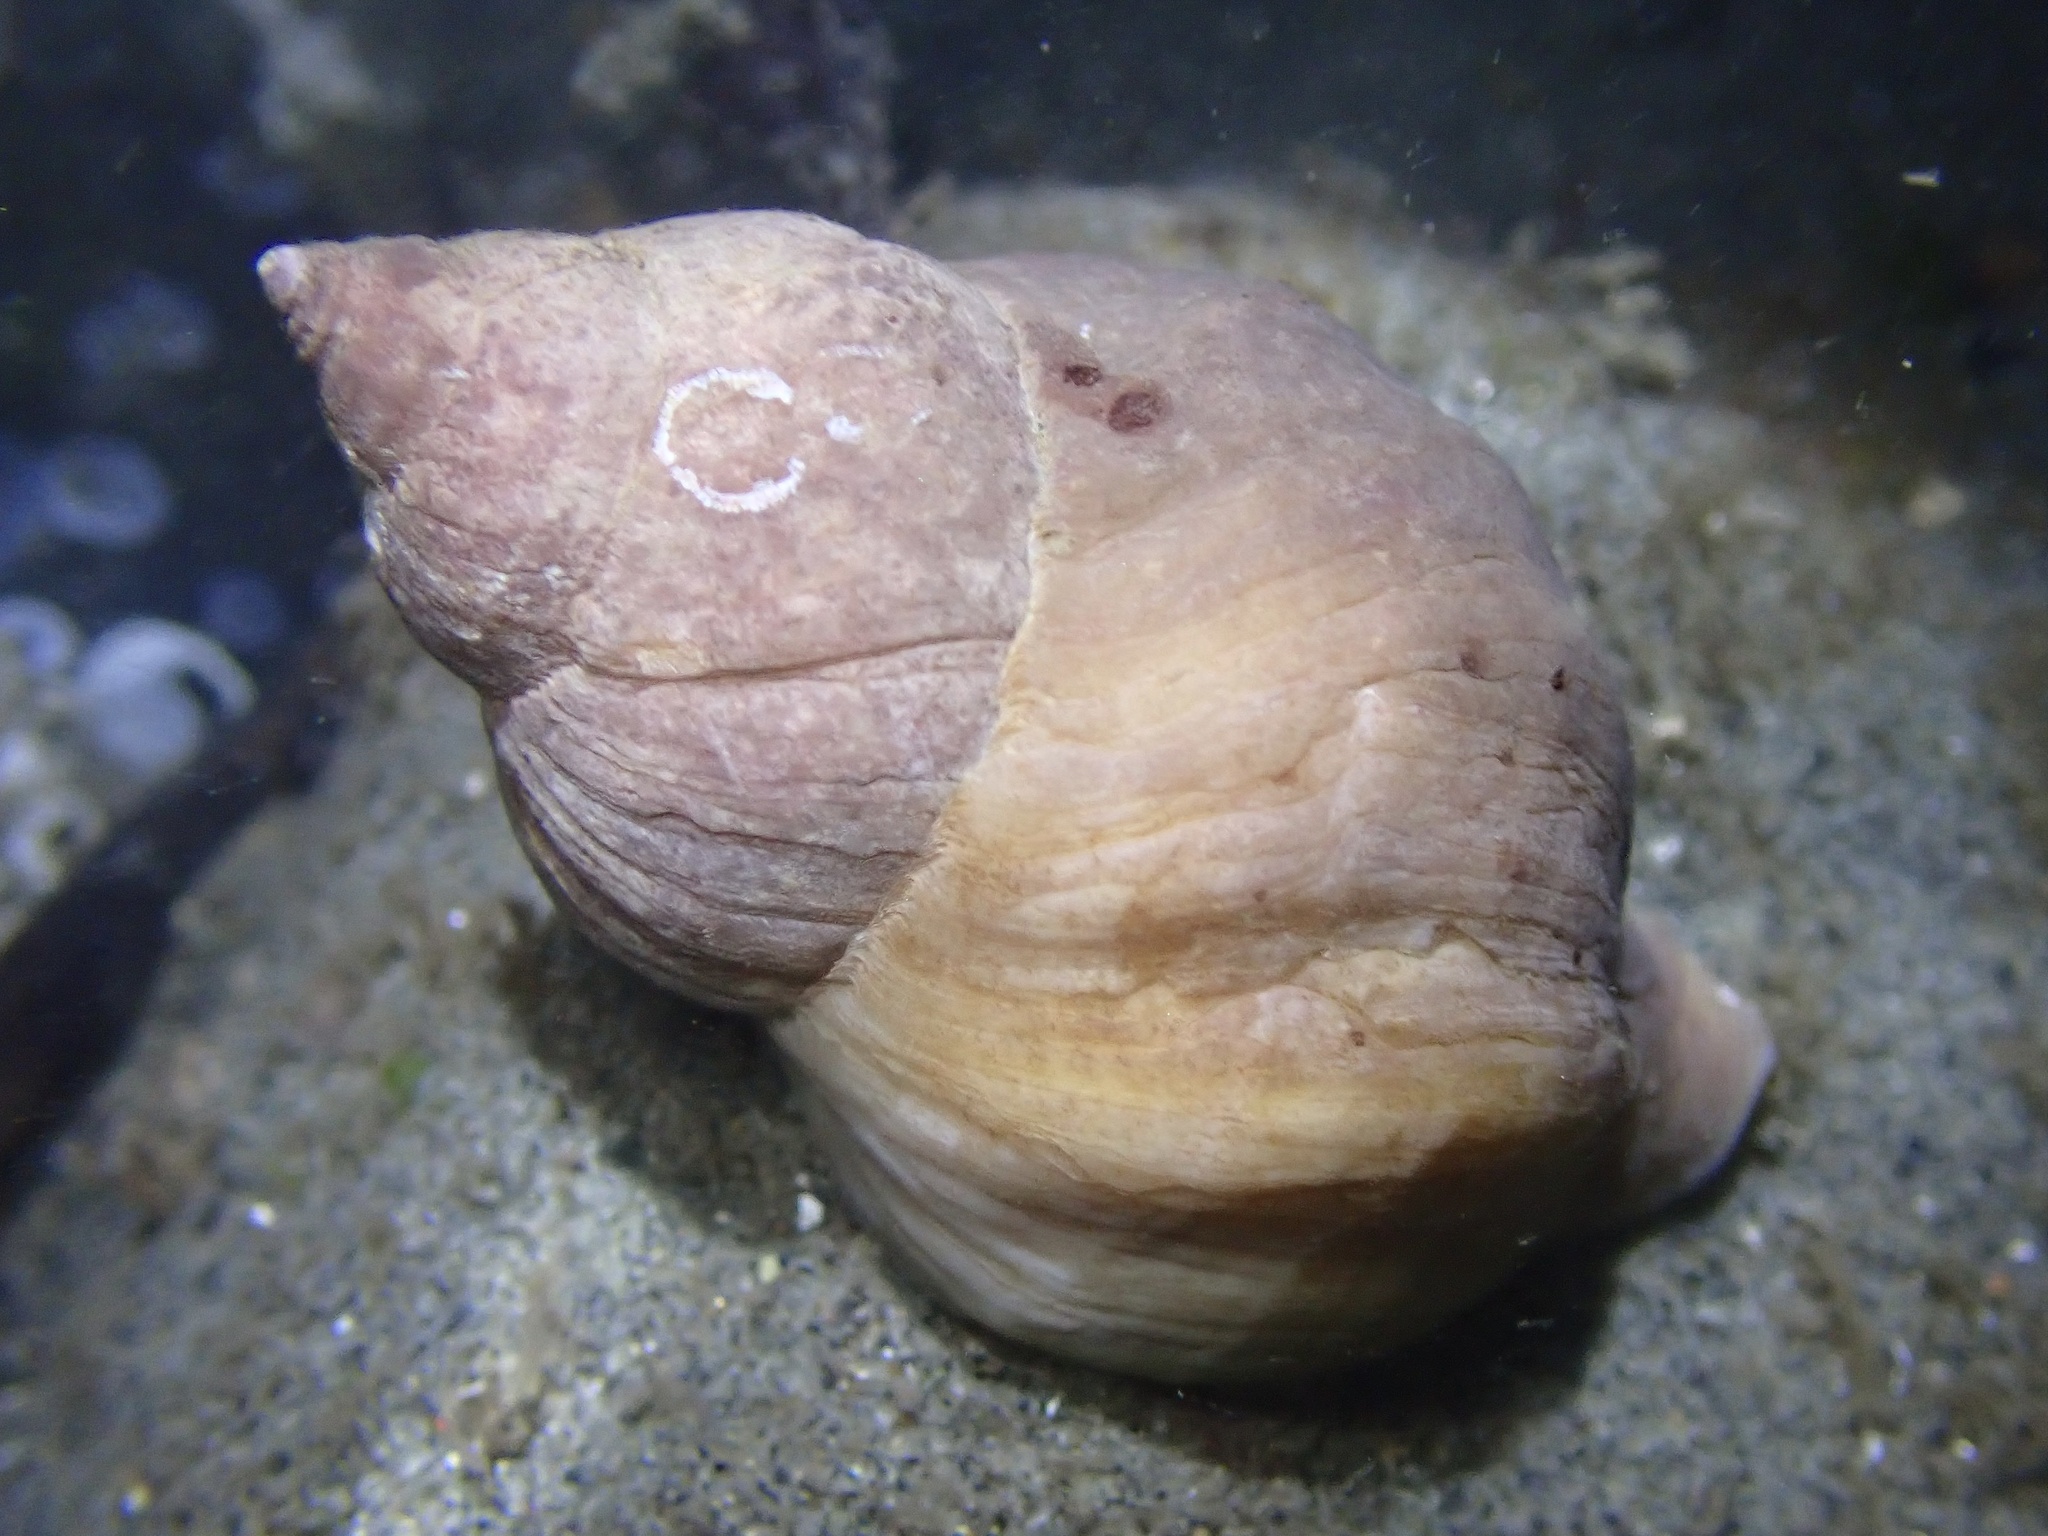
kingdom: Animalia
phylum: Mollusca
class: Gastropoda
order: Neogastropoda
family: Muricidae
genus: Nucella
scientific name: Nucella lamellosa
